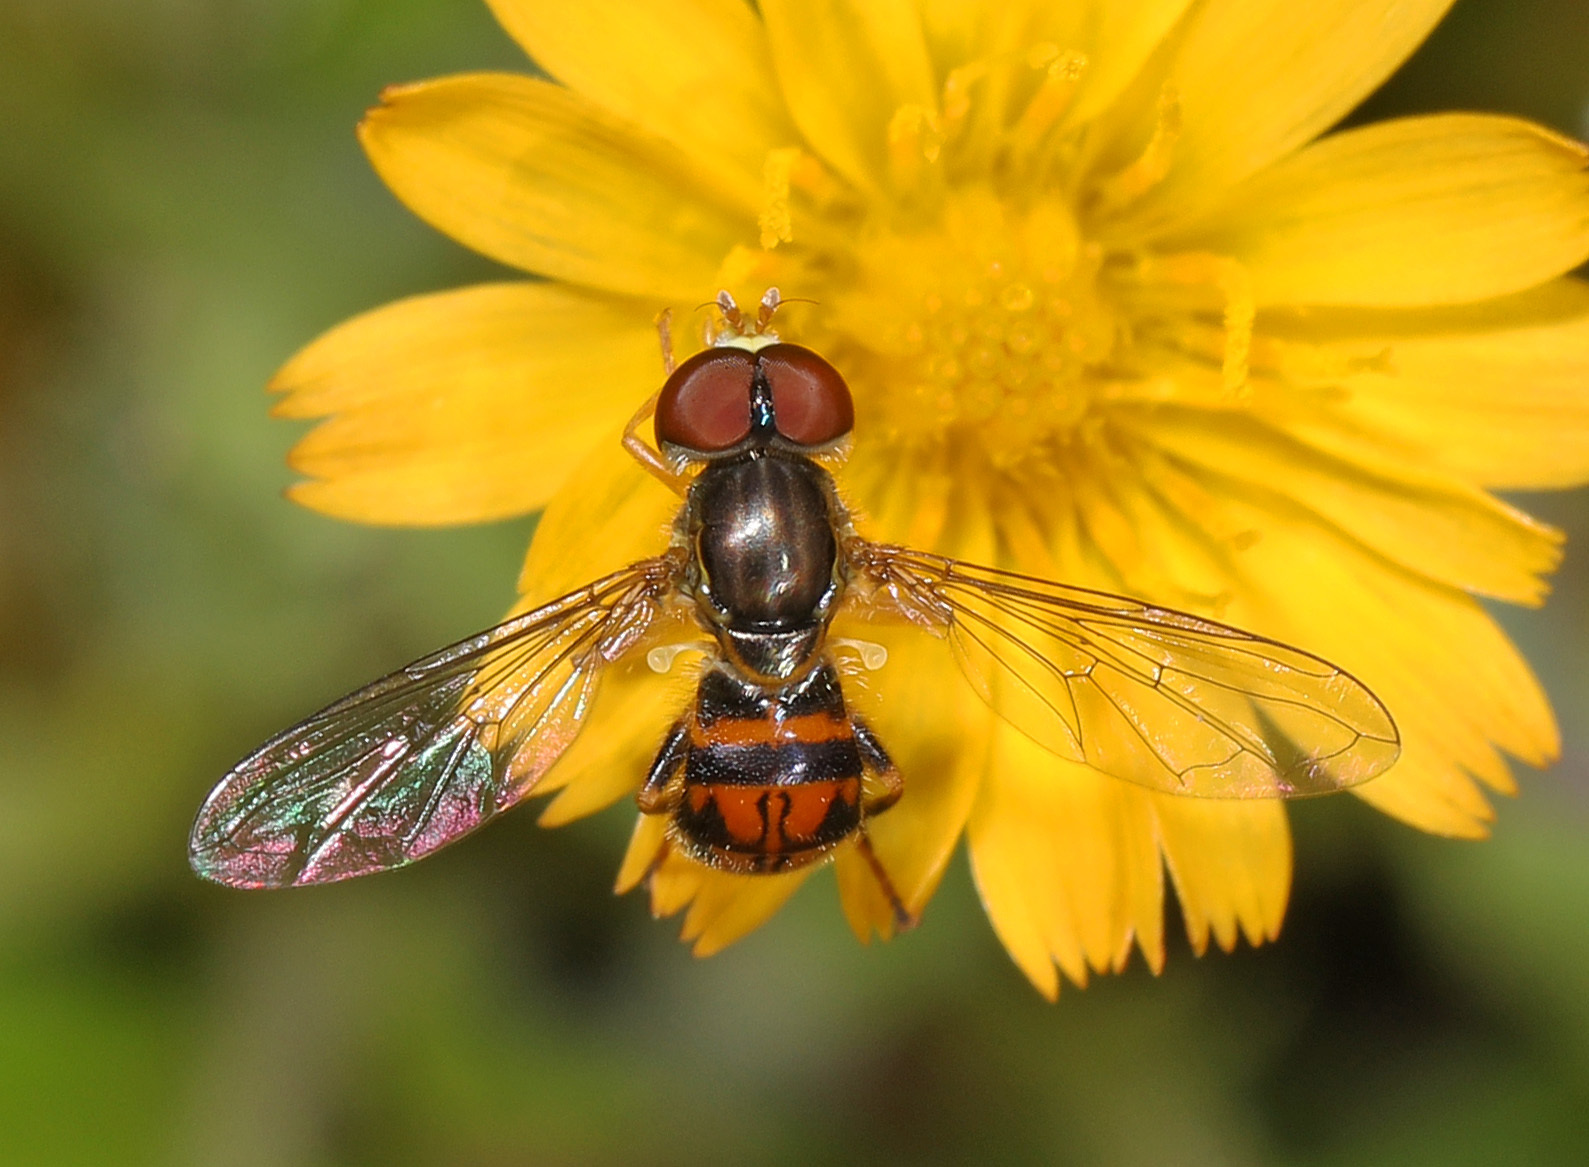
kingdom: Animalia
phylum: Arthropoda
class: Insecta
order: Diptera
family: Syrphidae
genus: Toxomerus
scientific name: Toxomerus boscii
